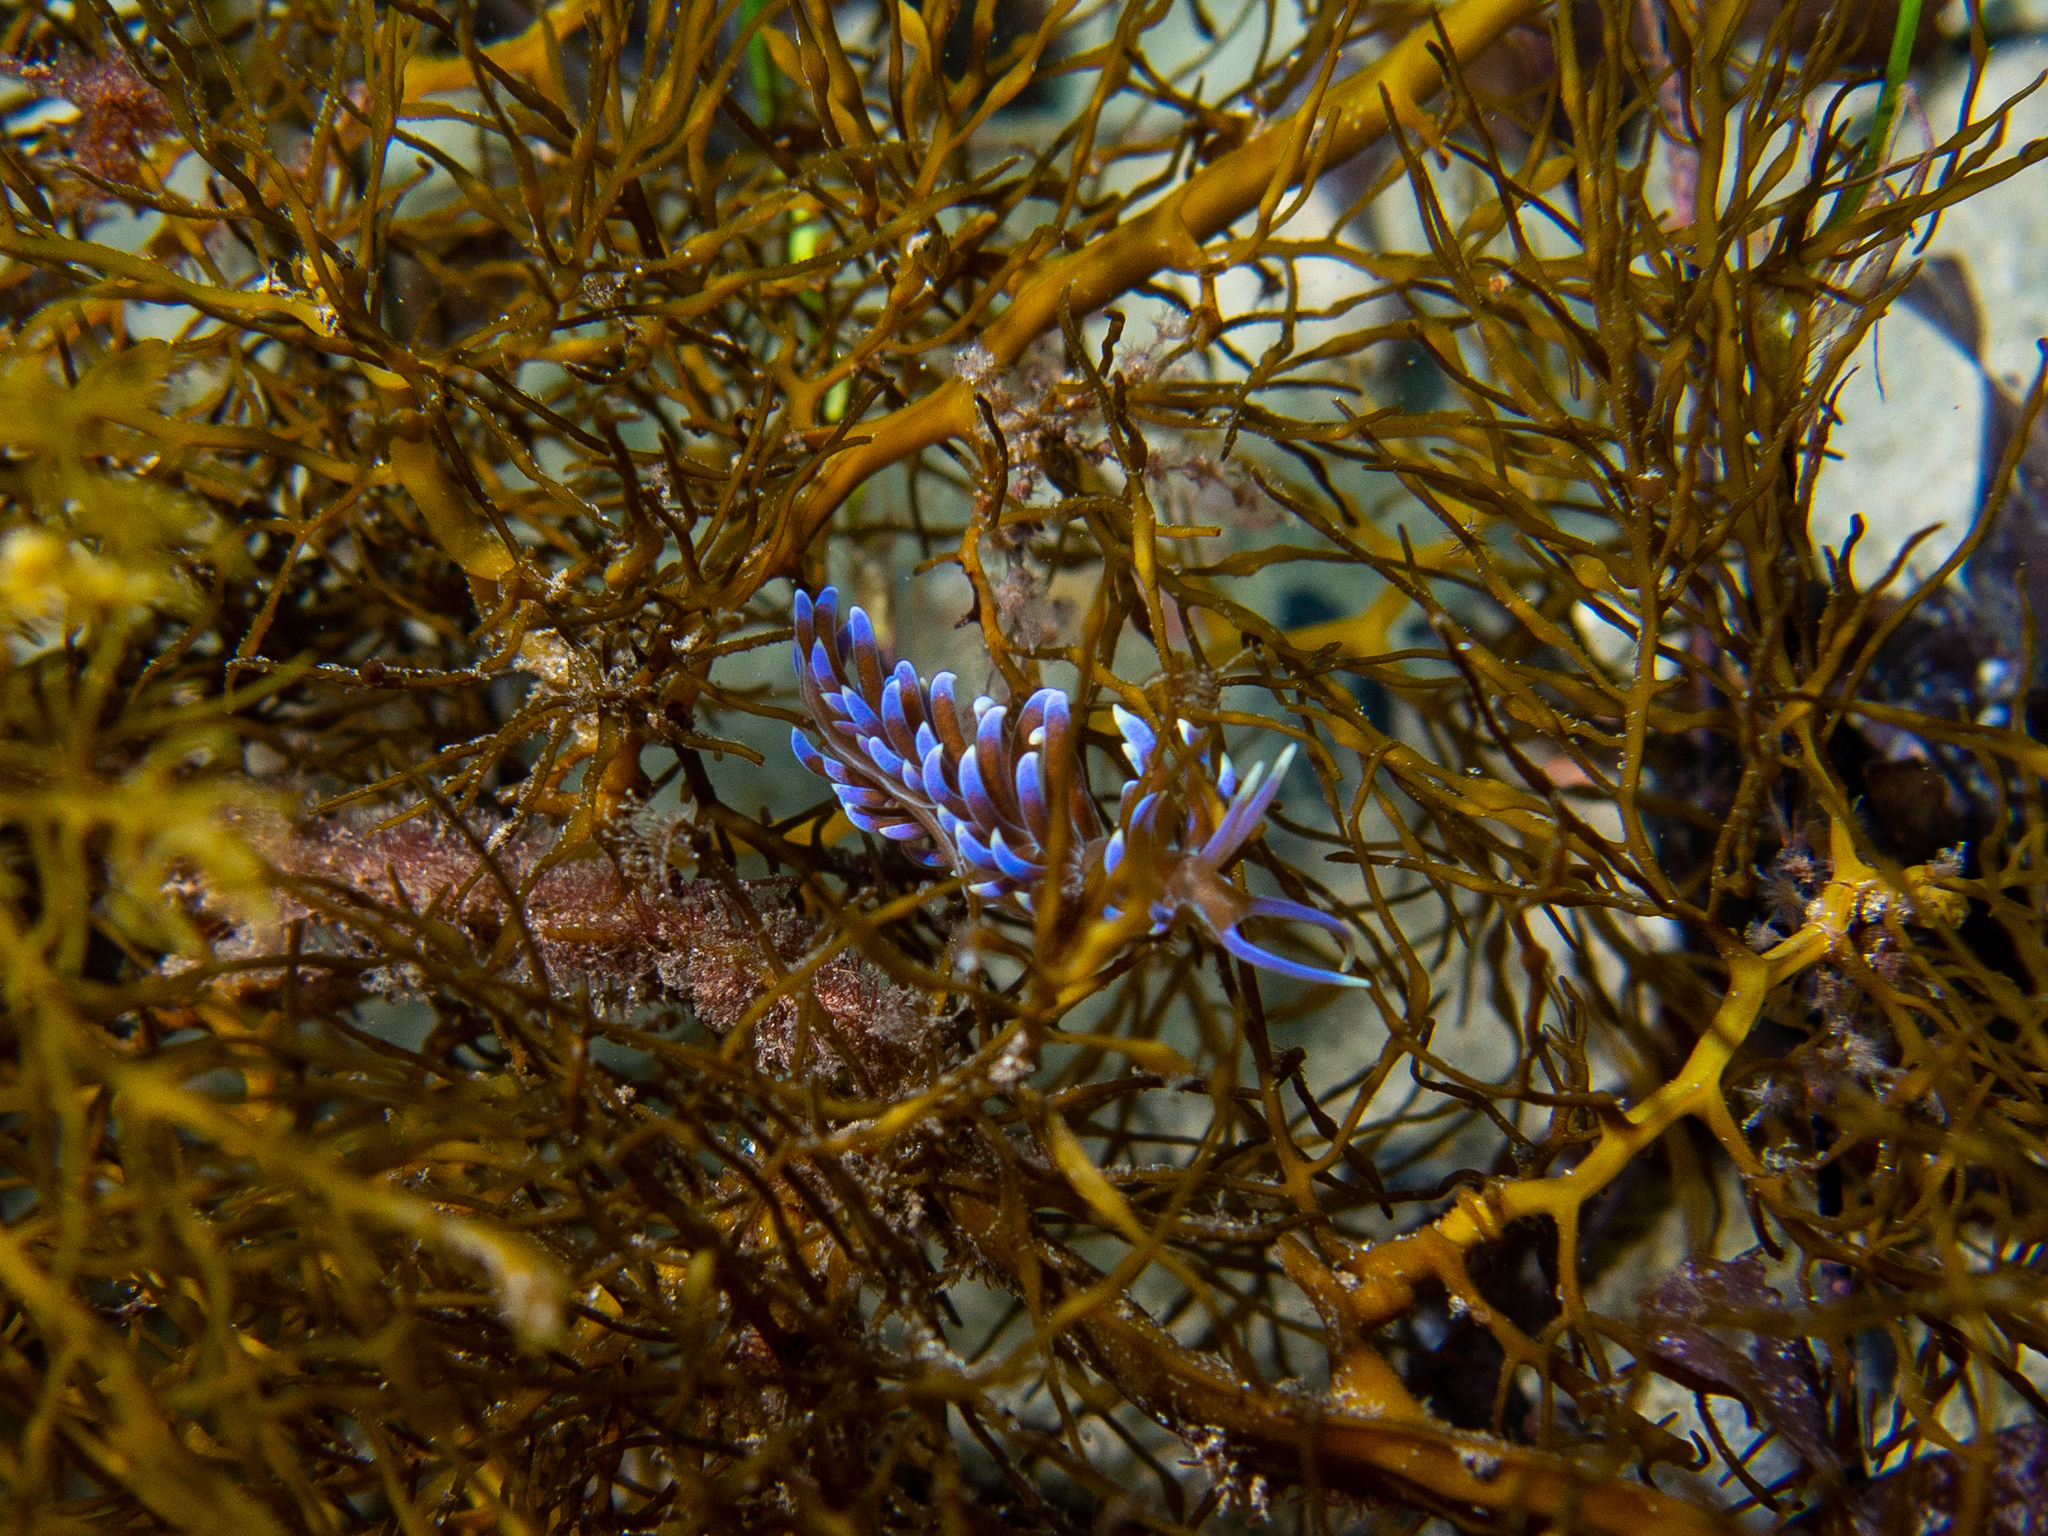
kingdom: Animalia
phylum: Mollusca
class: Gastropoda
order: Nudibranchia
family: Myrrhinidae
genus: Phyllodesmium
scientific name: Phyllodesmium macphersonae
